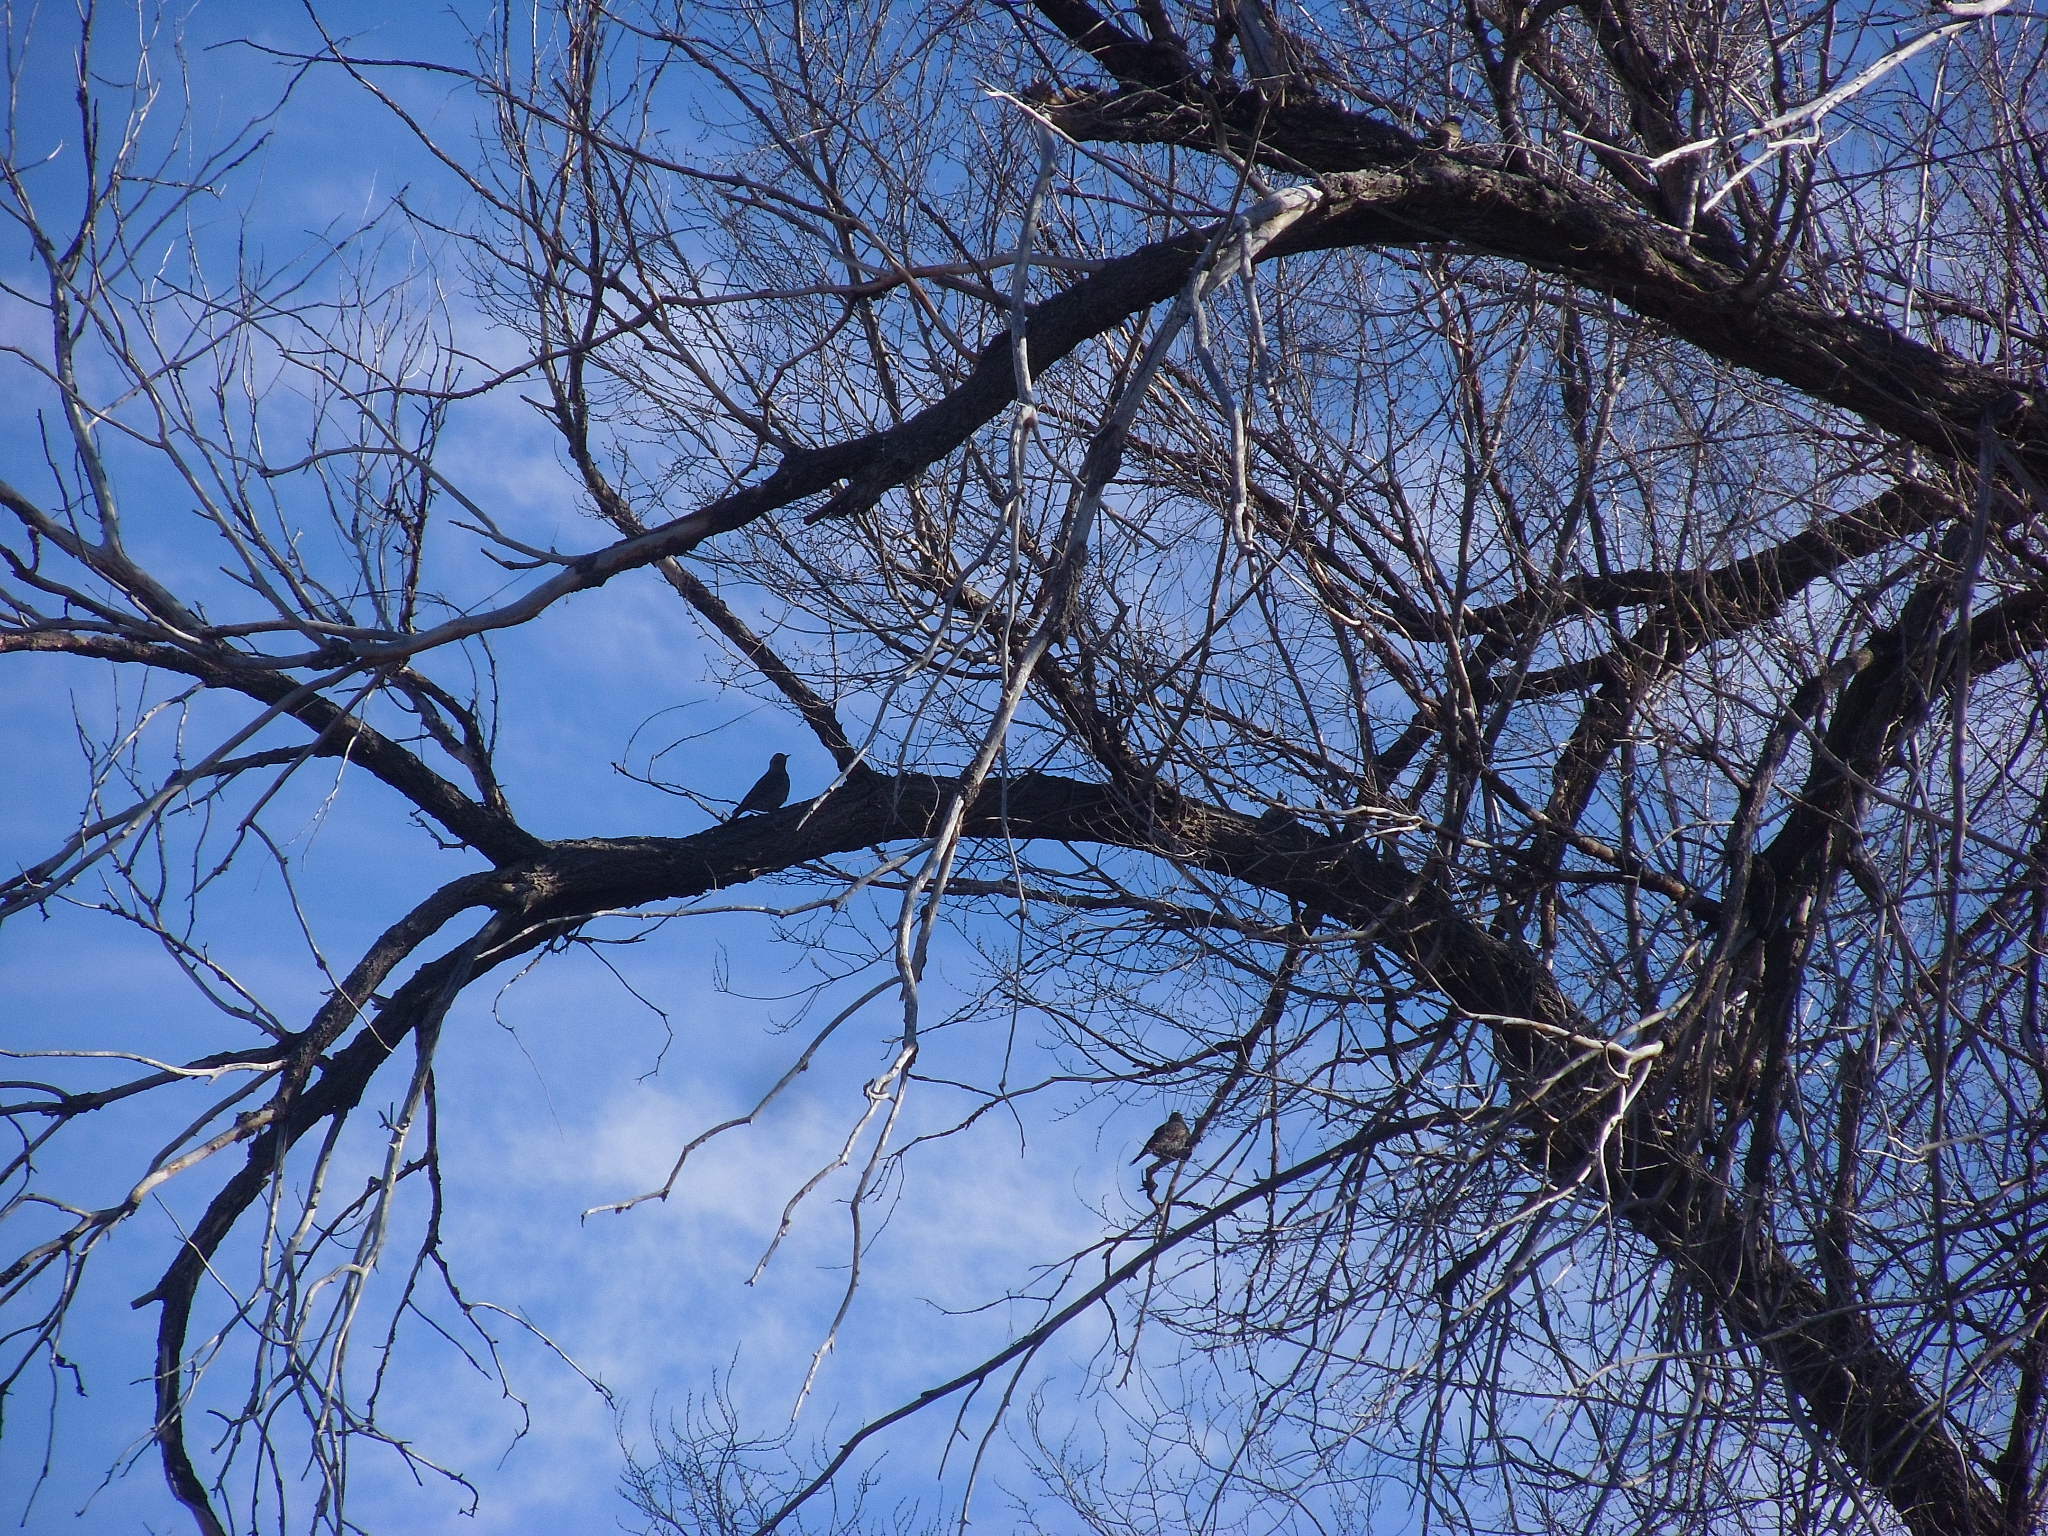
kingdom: Animalia
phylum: Chordata
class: Aves
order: Piciformes
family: Picidae
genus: Colaptes
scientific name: Colaptes auratus
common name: Northern flicker
